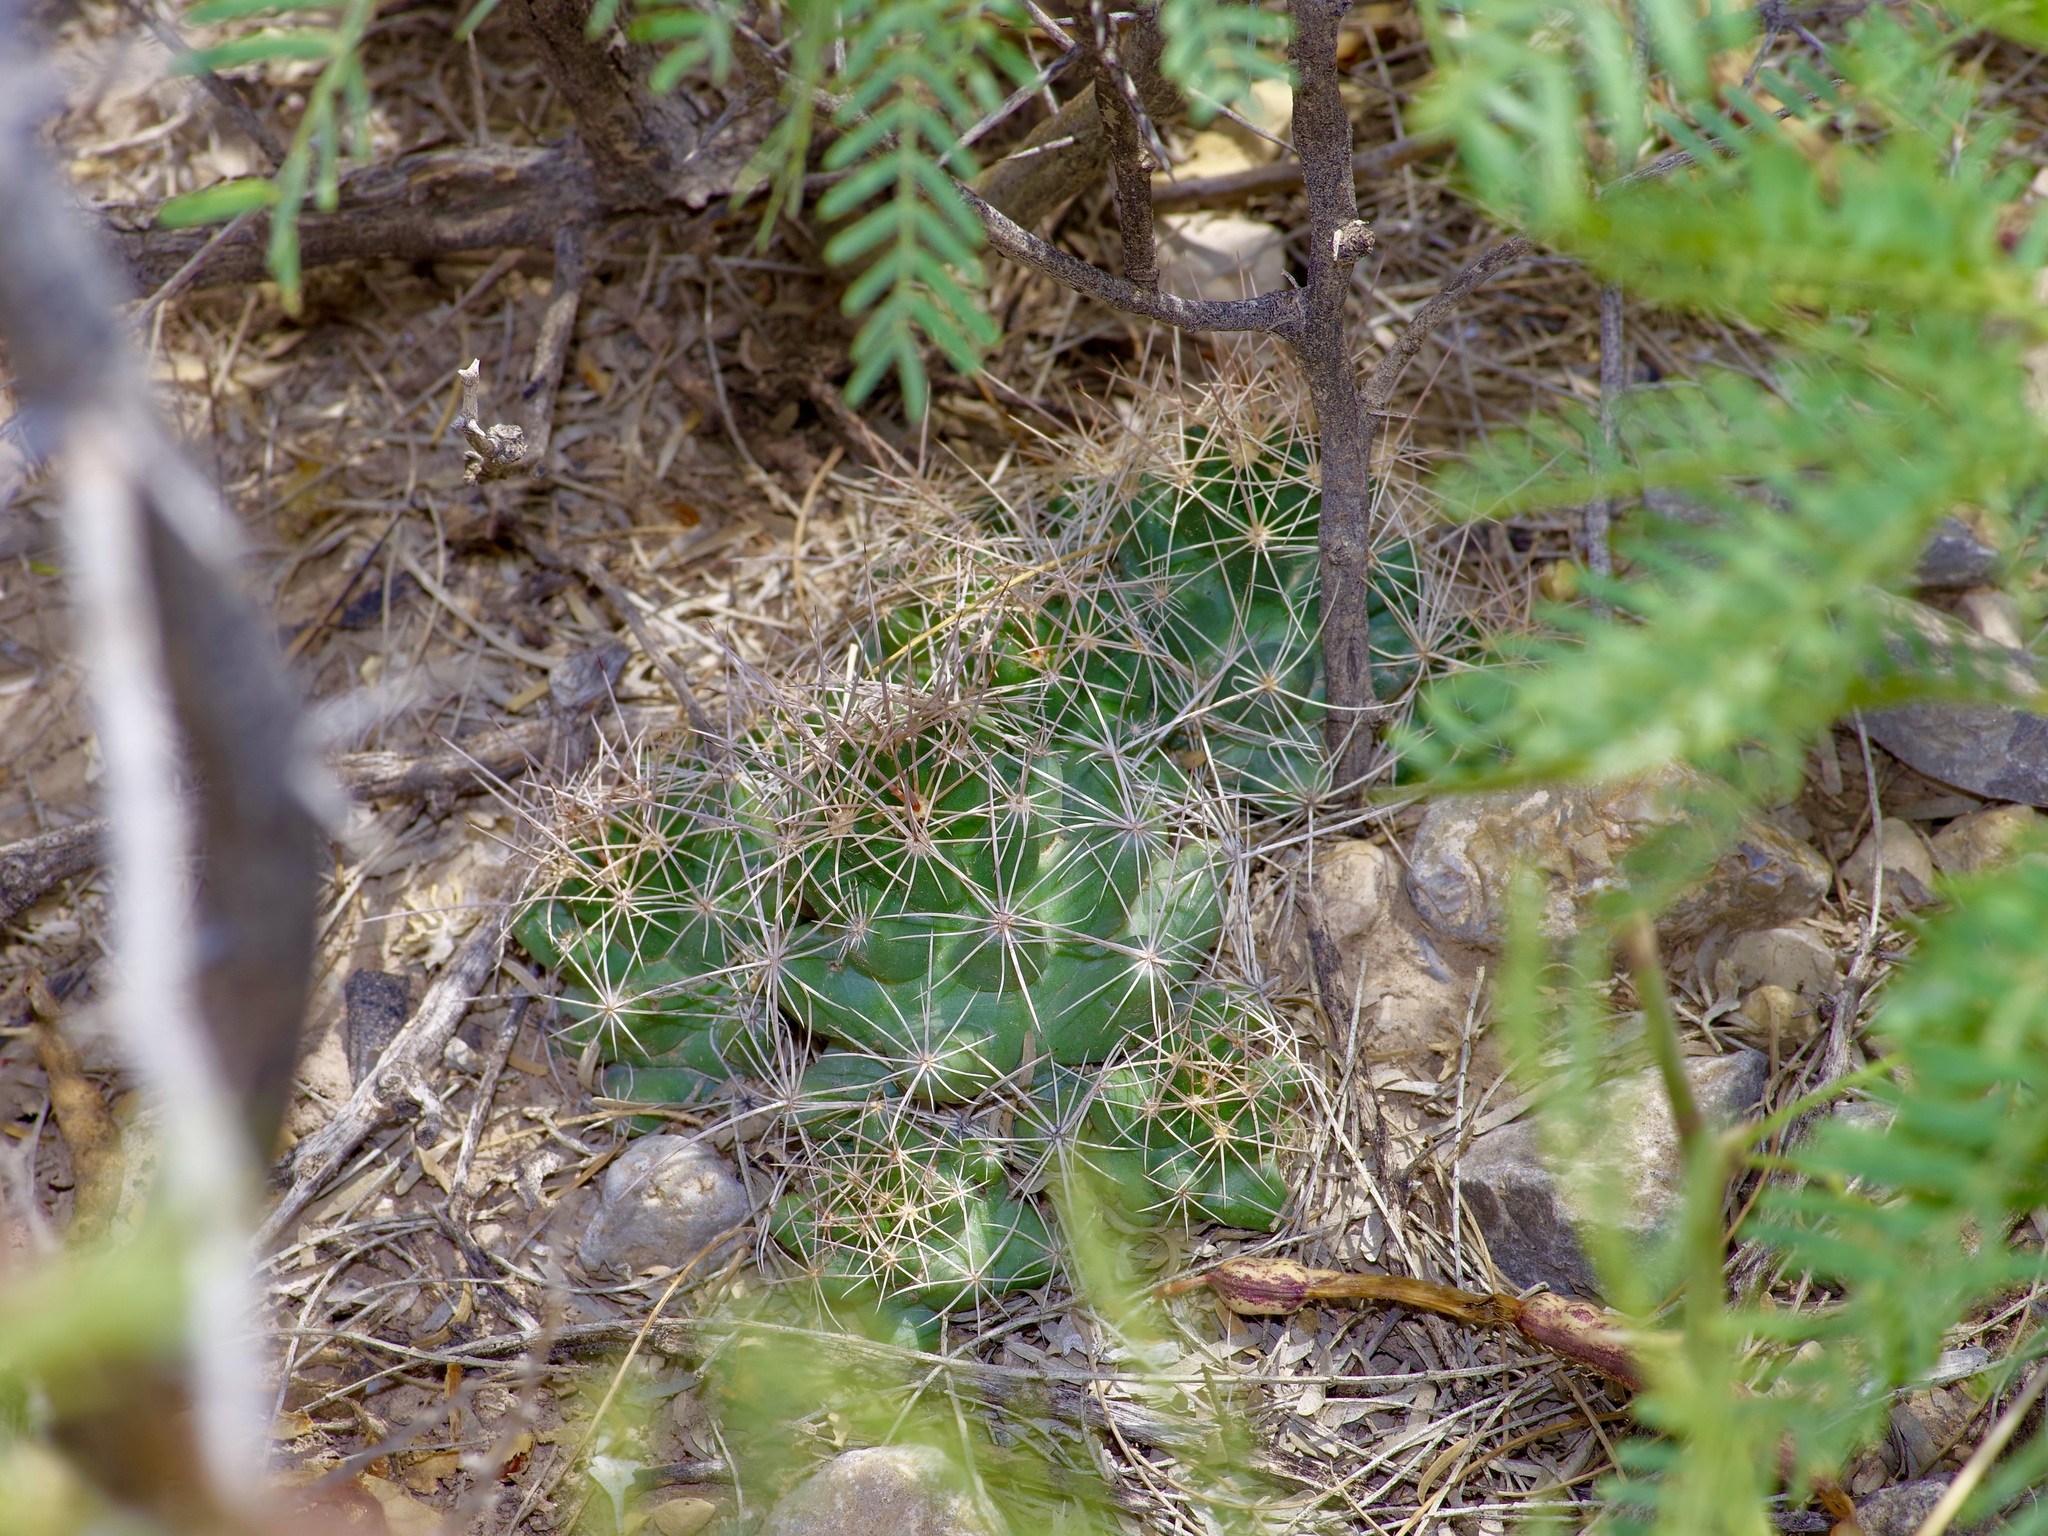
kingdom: Plantae
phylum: Tracheophyta
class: Magnoliopsida
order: Caryophyllales
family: Cactaceae
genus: Coryphantha
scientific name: Coryphantha macromeris
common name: Nipple beehive cactus
